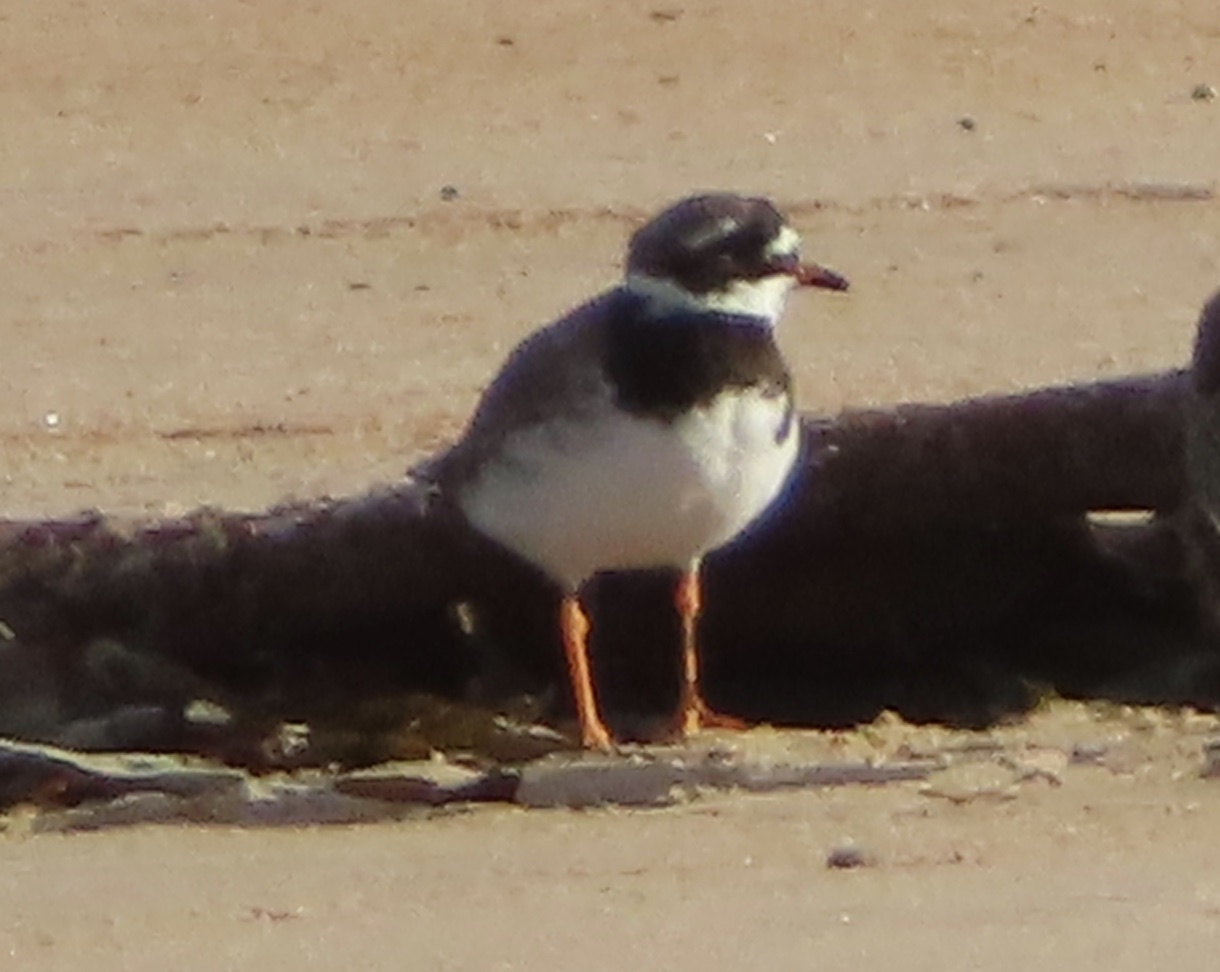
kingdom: Animalia
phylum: Chordata
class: Aves
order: Charadriiformes
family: Charadriidae
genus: Charadrius
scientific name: Charadrius hiaticula
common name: Common ringed plover
